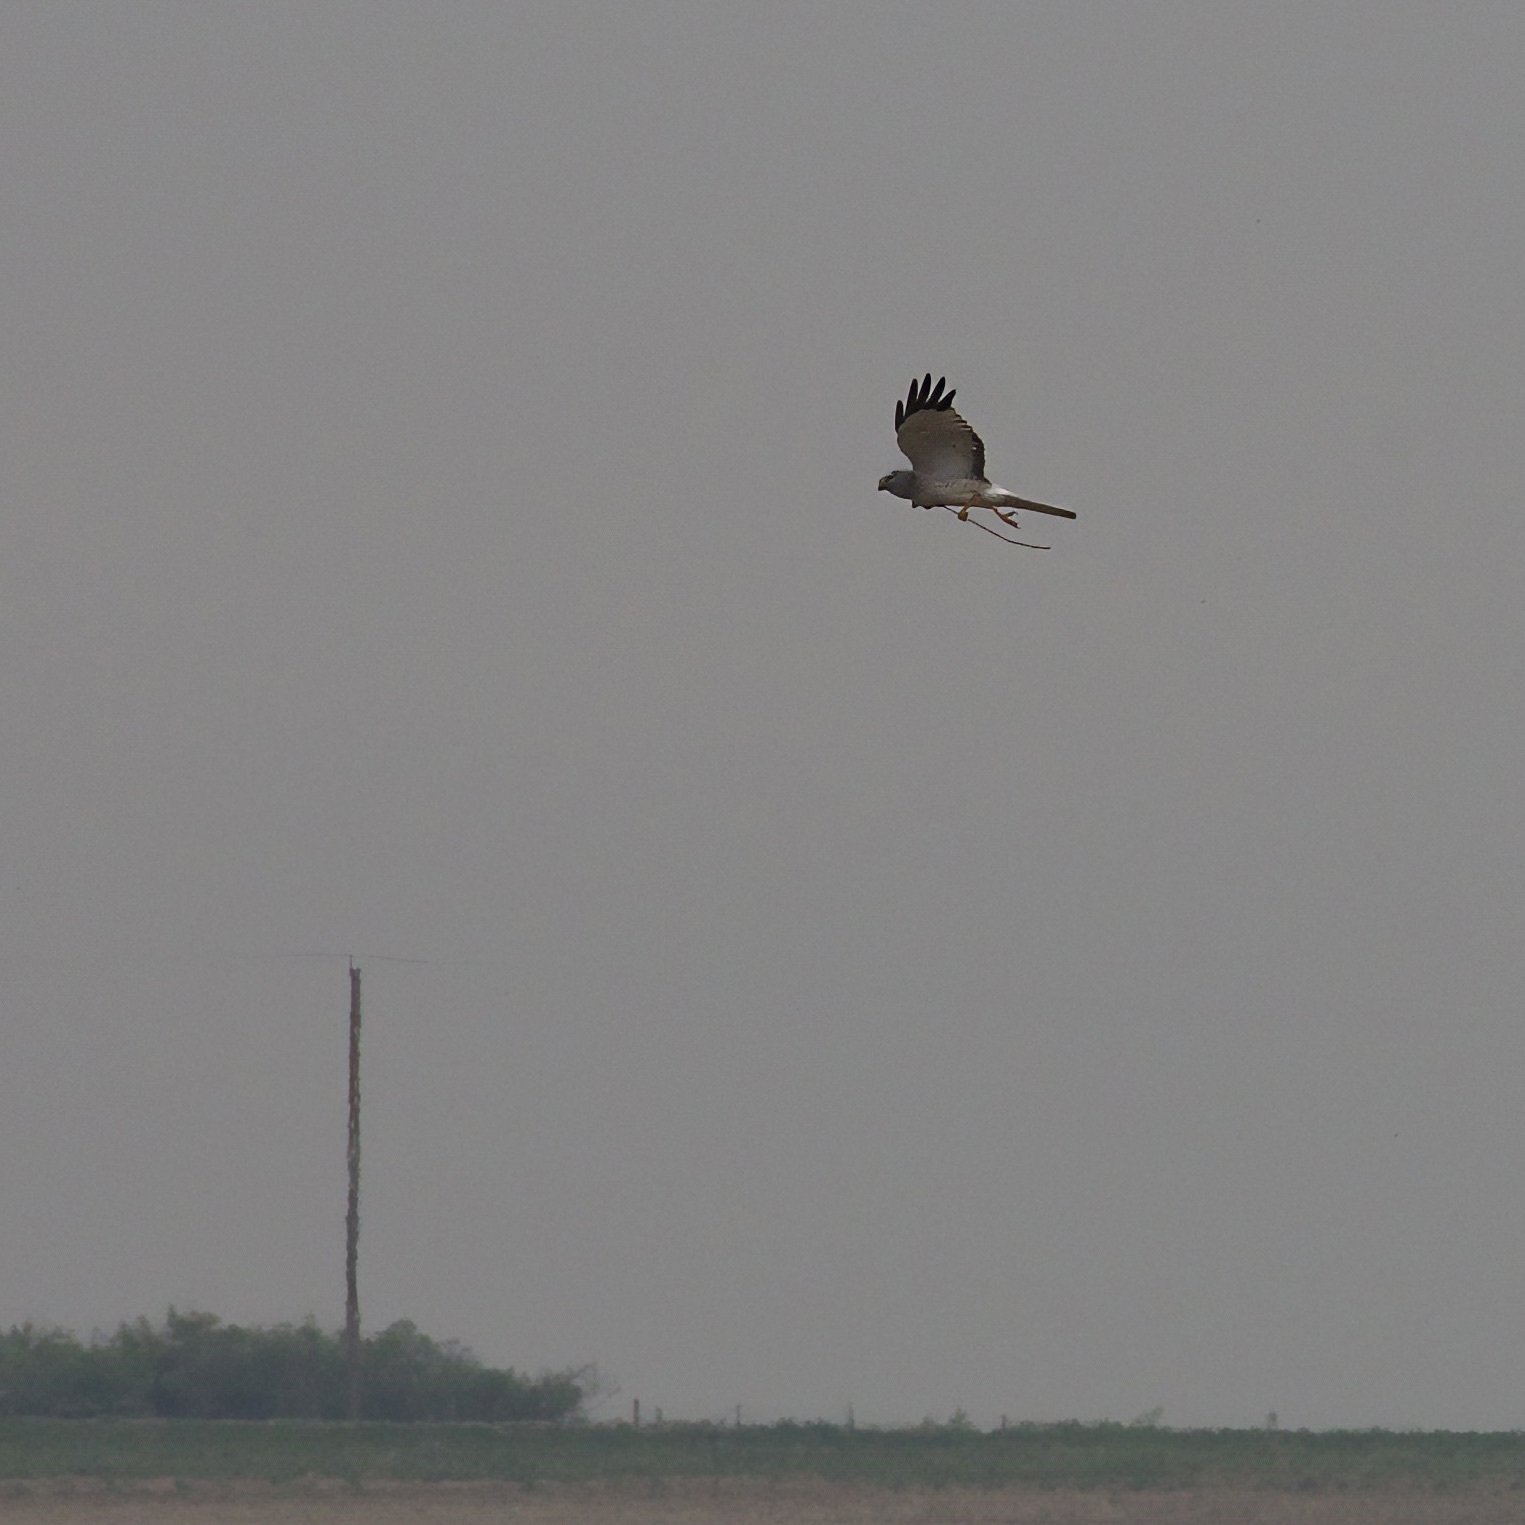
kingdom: Animalia
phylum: Chordata
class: Aves
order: Accipitriformes
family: Accipitridae
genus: Circus
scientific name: Circus cyaneus
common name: Hen harrier
